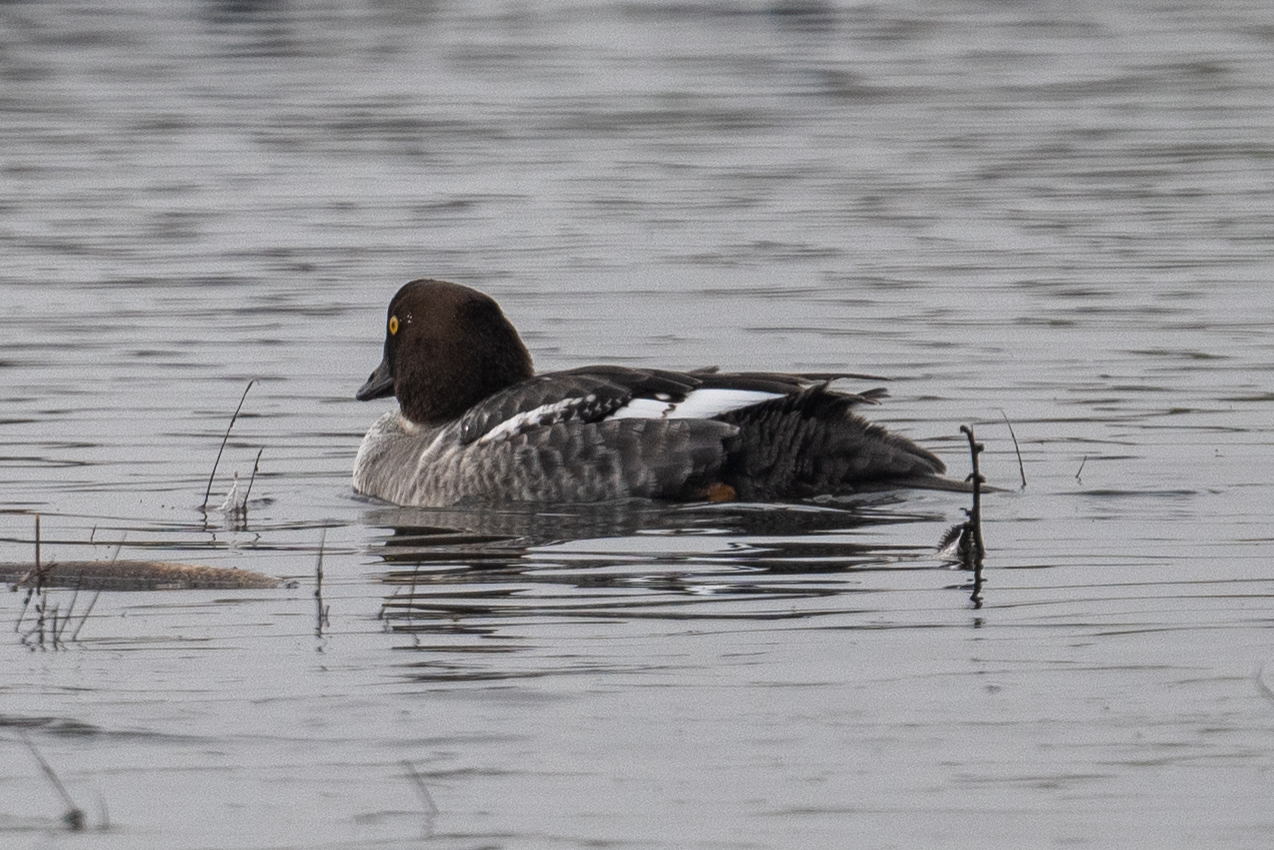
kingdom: Animalia
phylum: Chordata
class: Aves
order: Anseriformes
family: Anatidae
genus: Bucephala
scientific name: Bucephala clangula
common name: Common goldeneye
